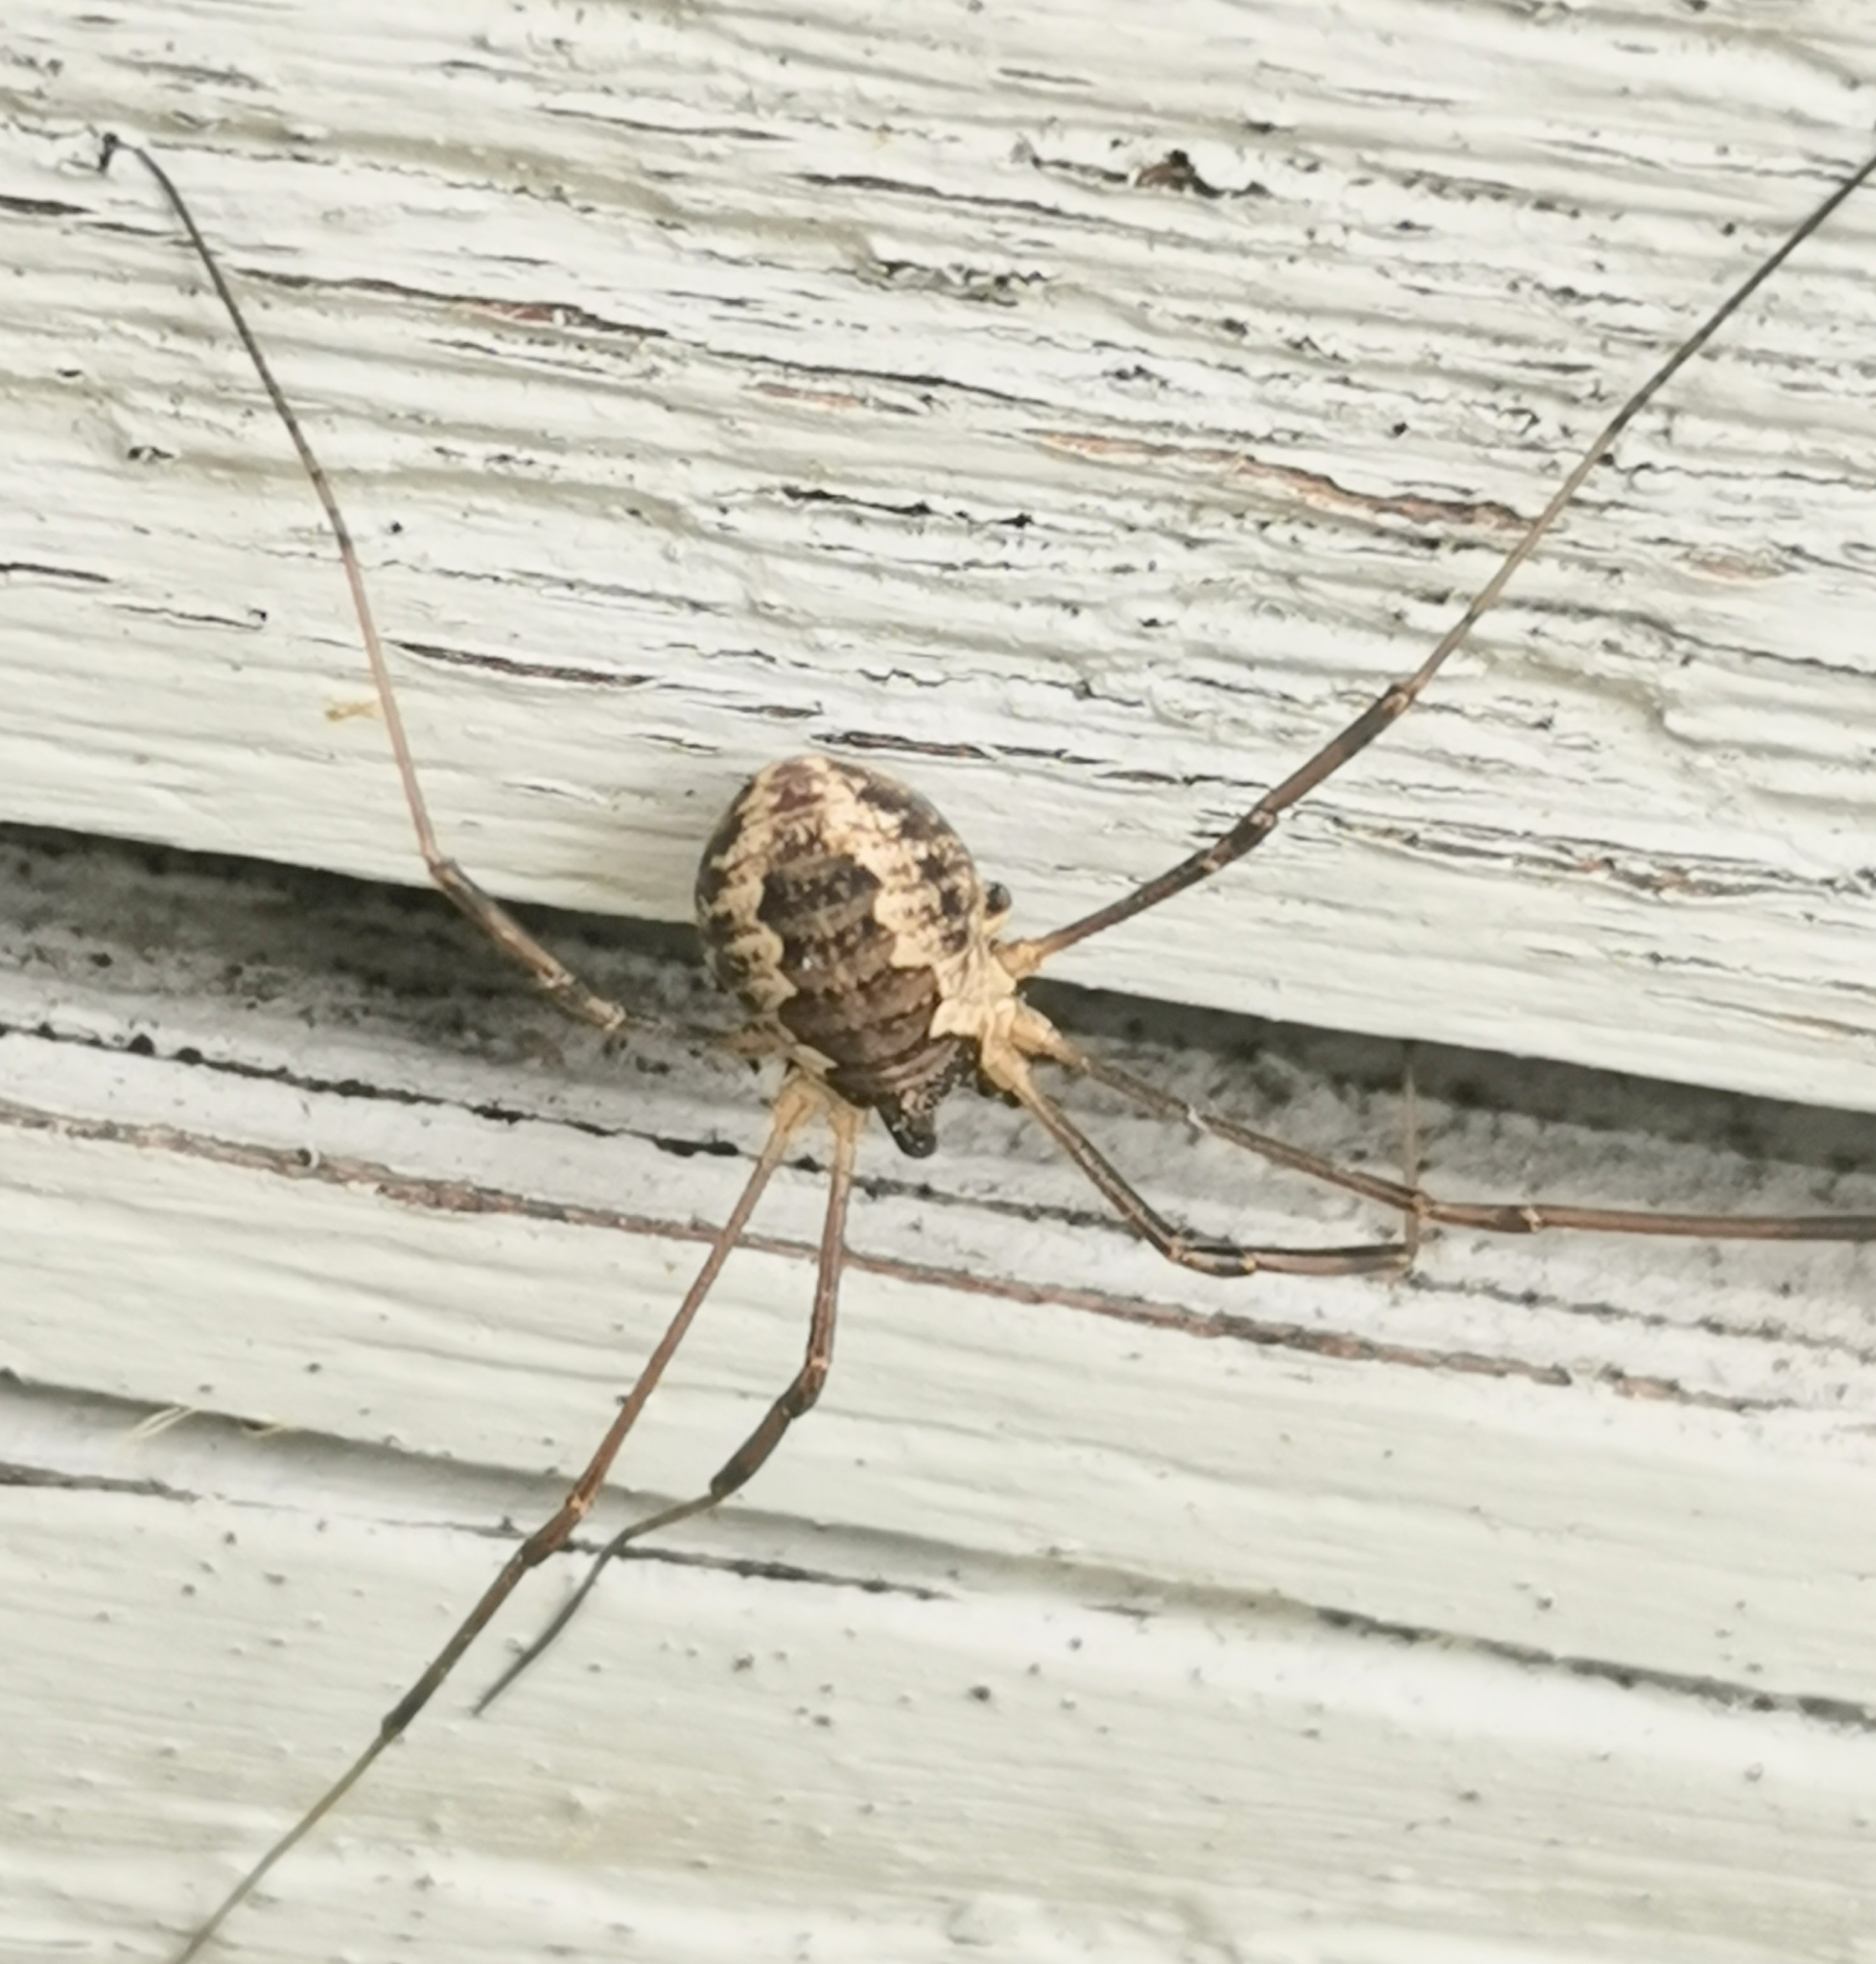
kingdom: Animalia
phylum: Arthropoda
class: Arachnida
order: Opiliones
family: Phalangiidae
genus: Mitopus
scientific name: Mitopus morio
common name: Saddleback harvestman
